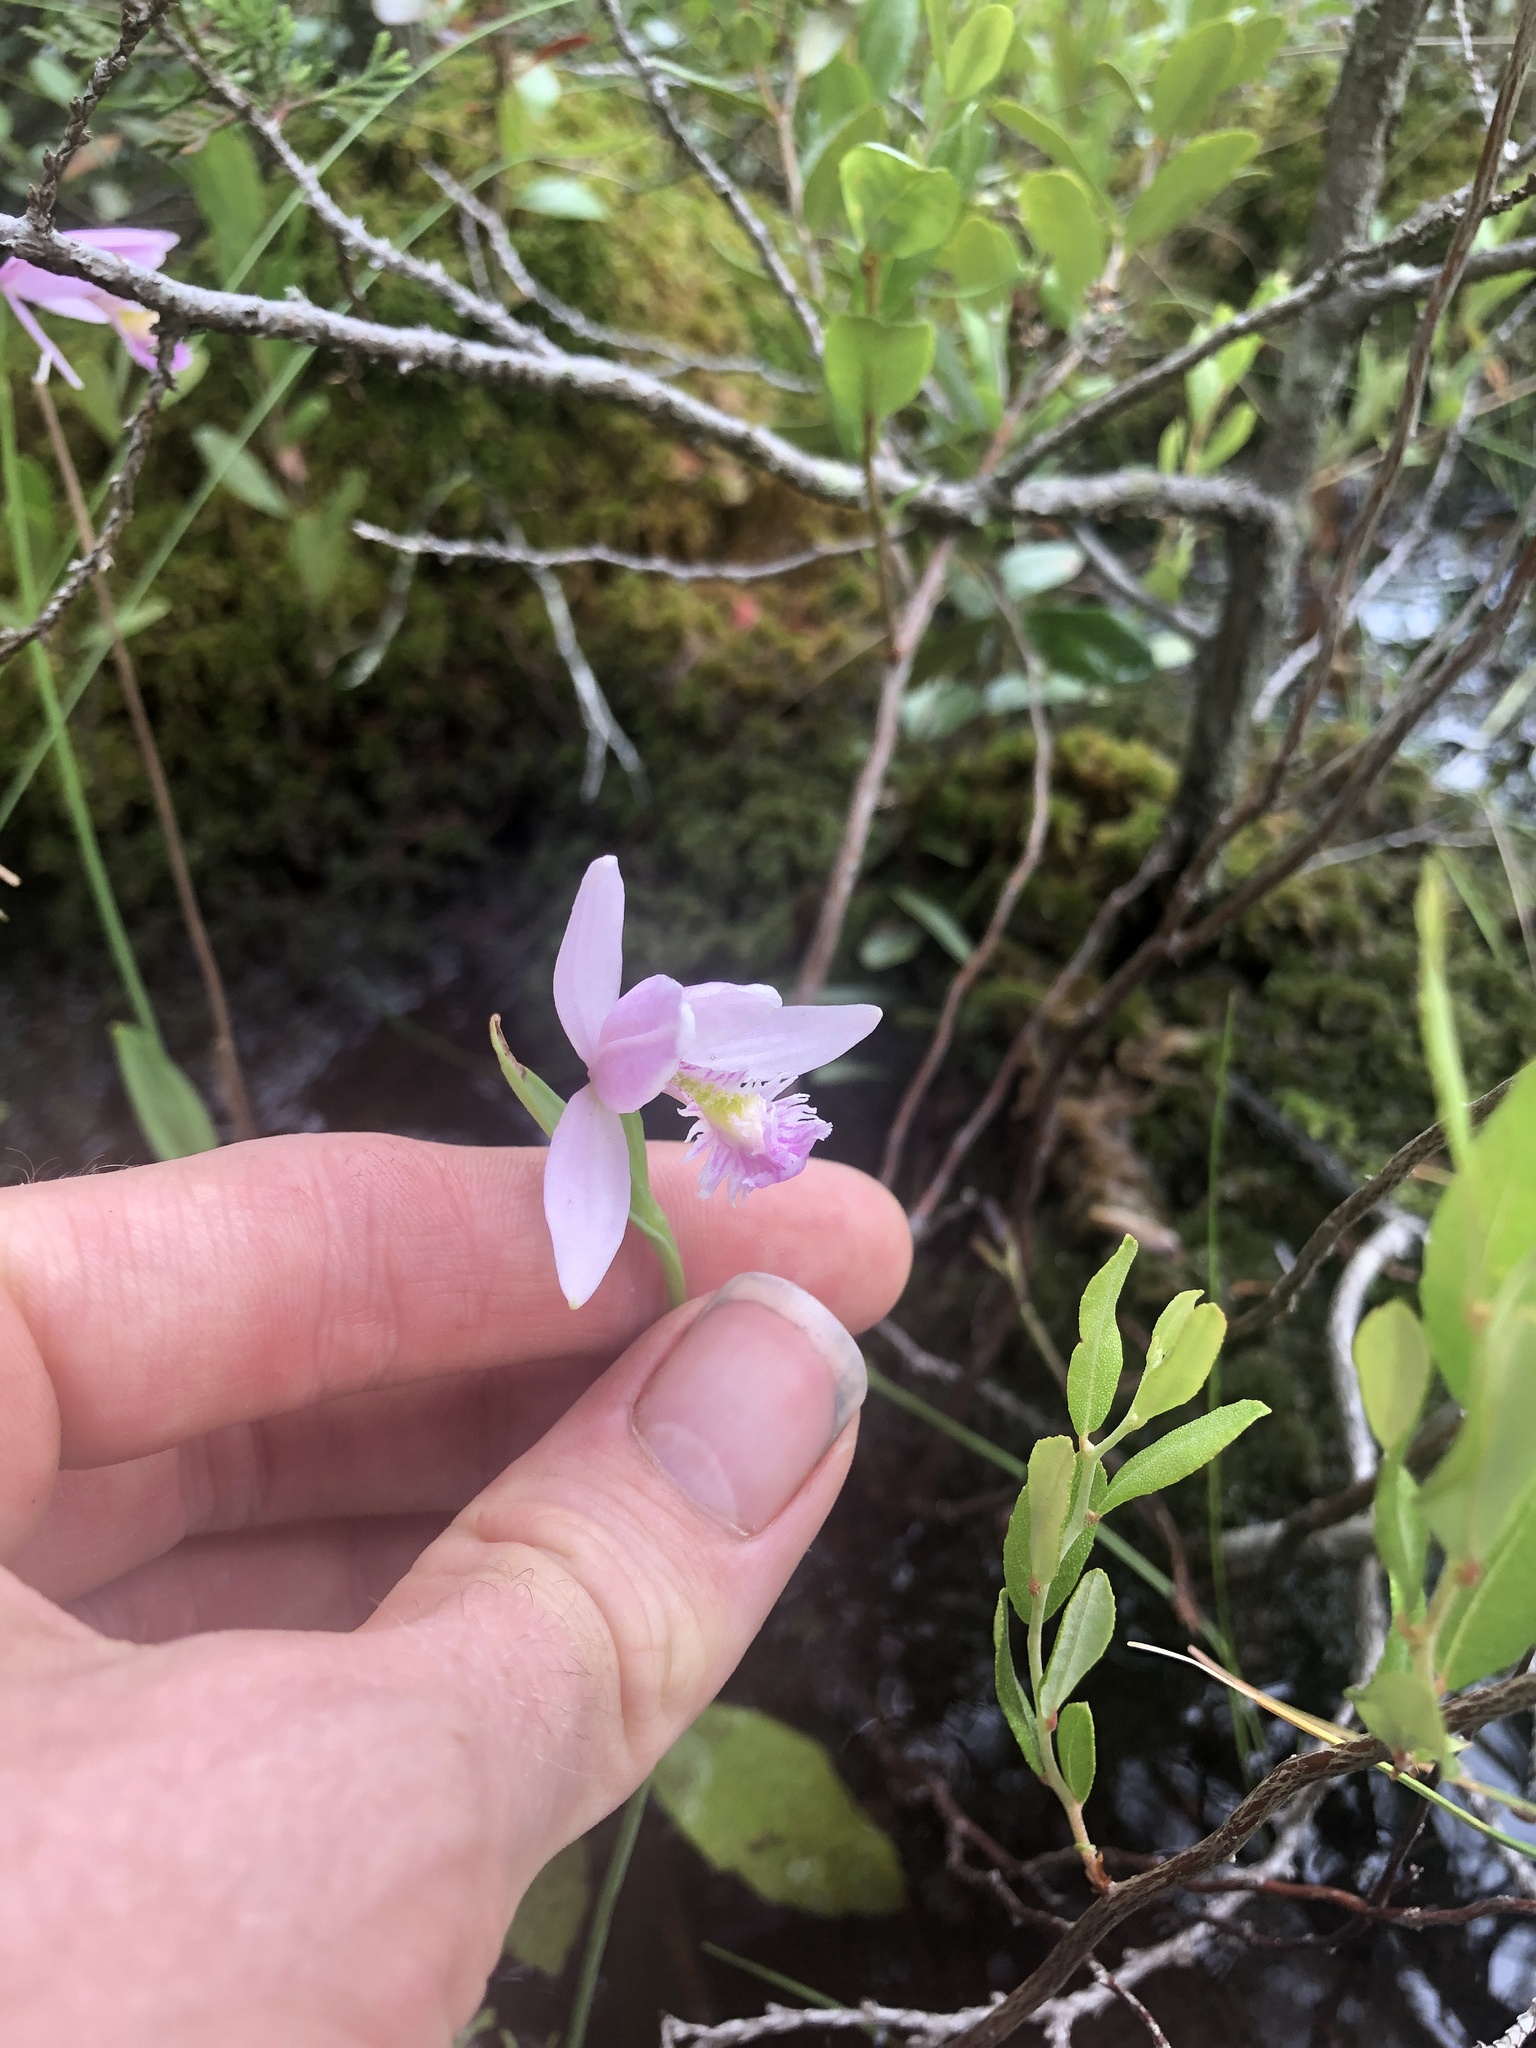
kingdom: Plantae
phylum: Tracheophyta
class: Liliopsida
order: Asparagales
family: Orchidaceae
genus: Pogonia
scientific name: Pogonia ophioglossoides
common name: Rose pogonia
